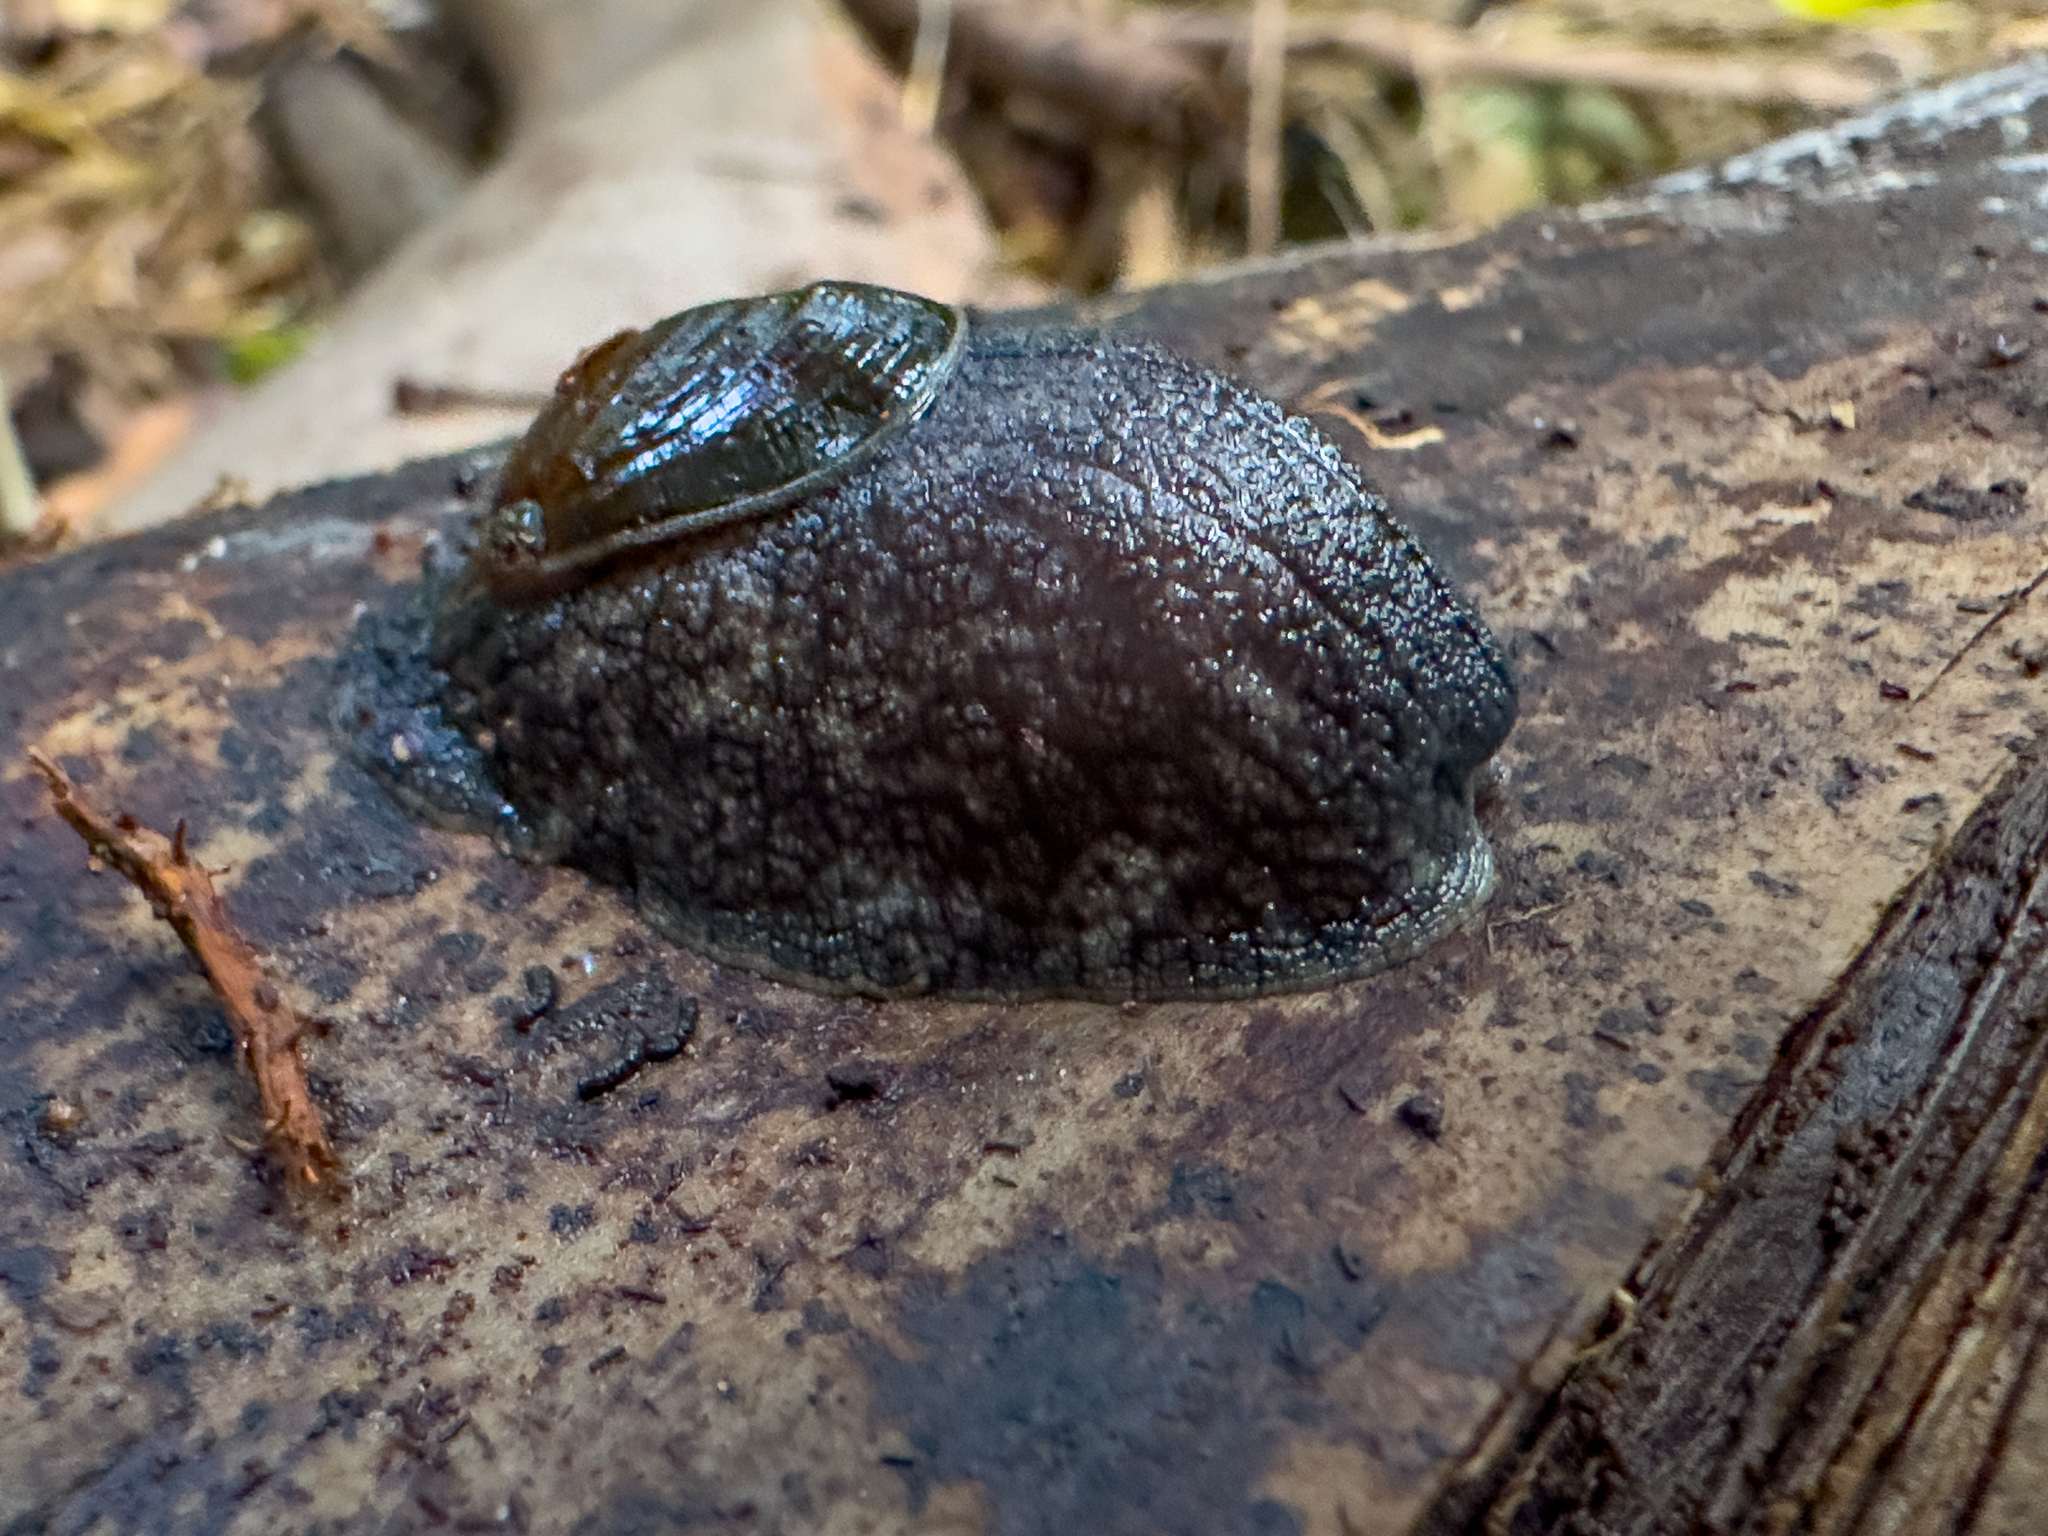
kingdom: Animalia
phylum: Mollusca
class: Gastropoda
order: Stylommatophora
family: Rhytididae
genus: Schizoglossa
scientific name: Schizoglossa novoseelandica
